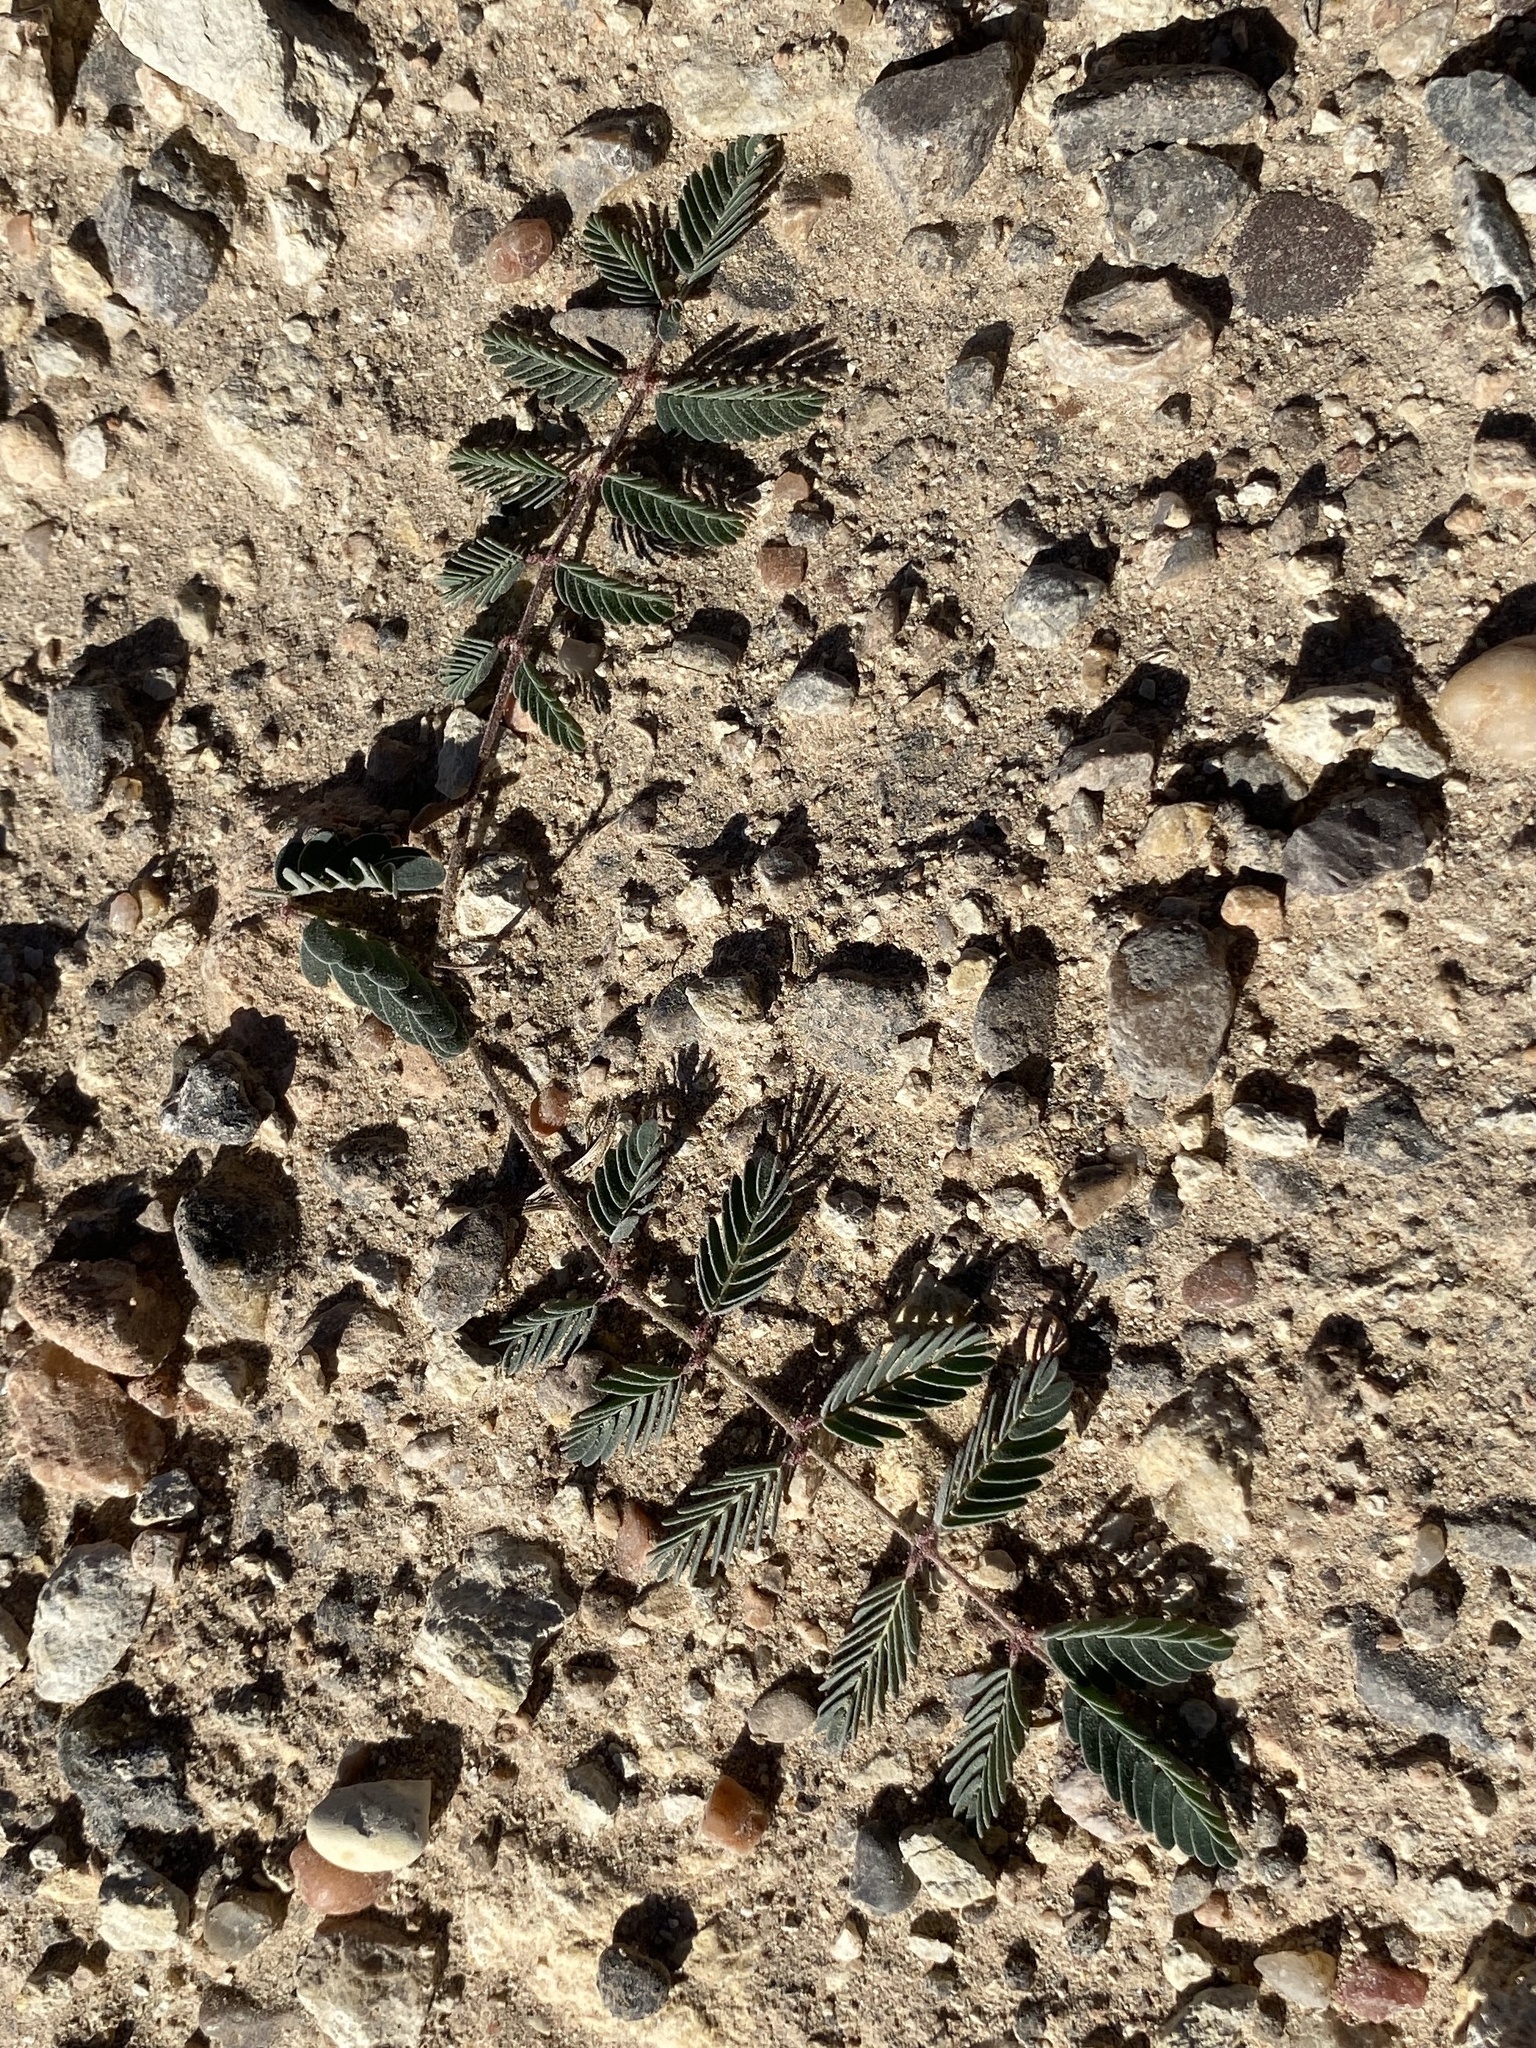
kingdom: Plantae
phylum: Tracheophyta
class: Magnoliopsida
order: Fabales
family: Fabaceae
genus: Hoffmannseggia
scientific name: Hoffmannseggia glauca
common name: Pignut
